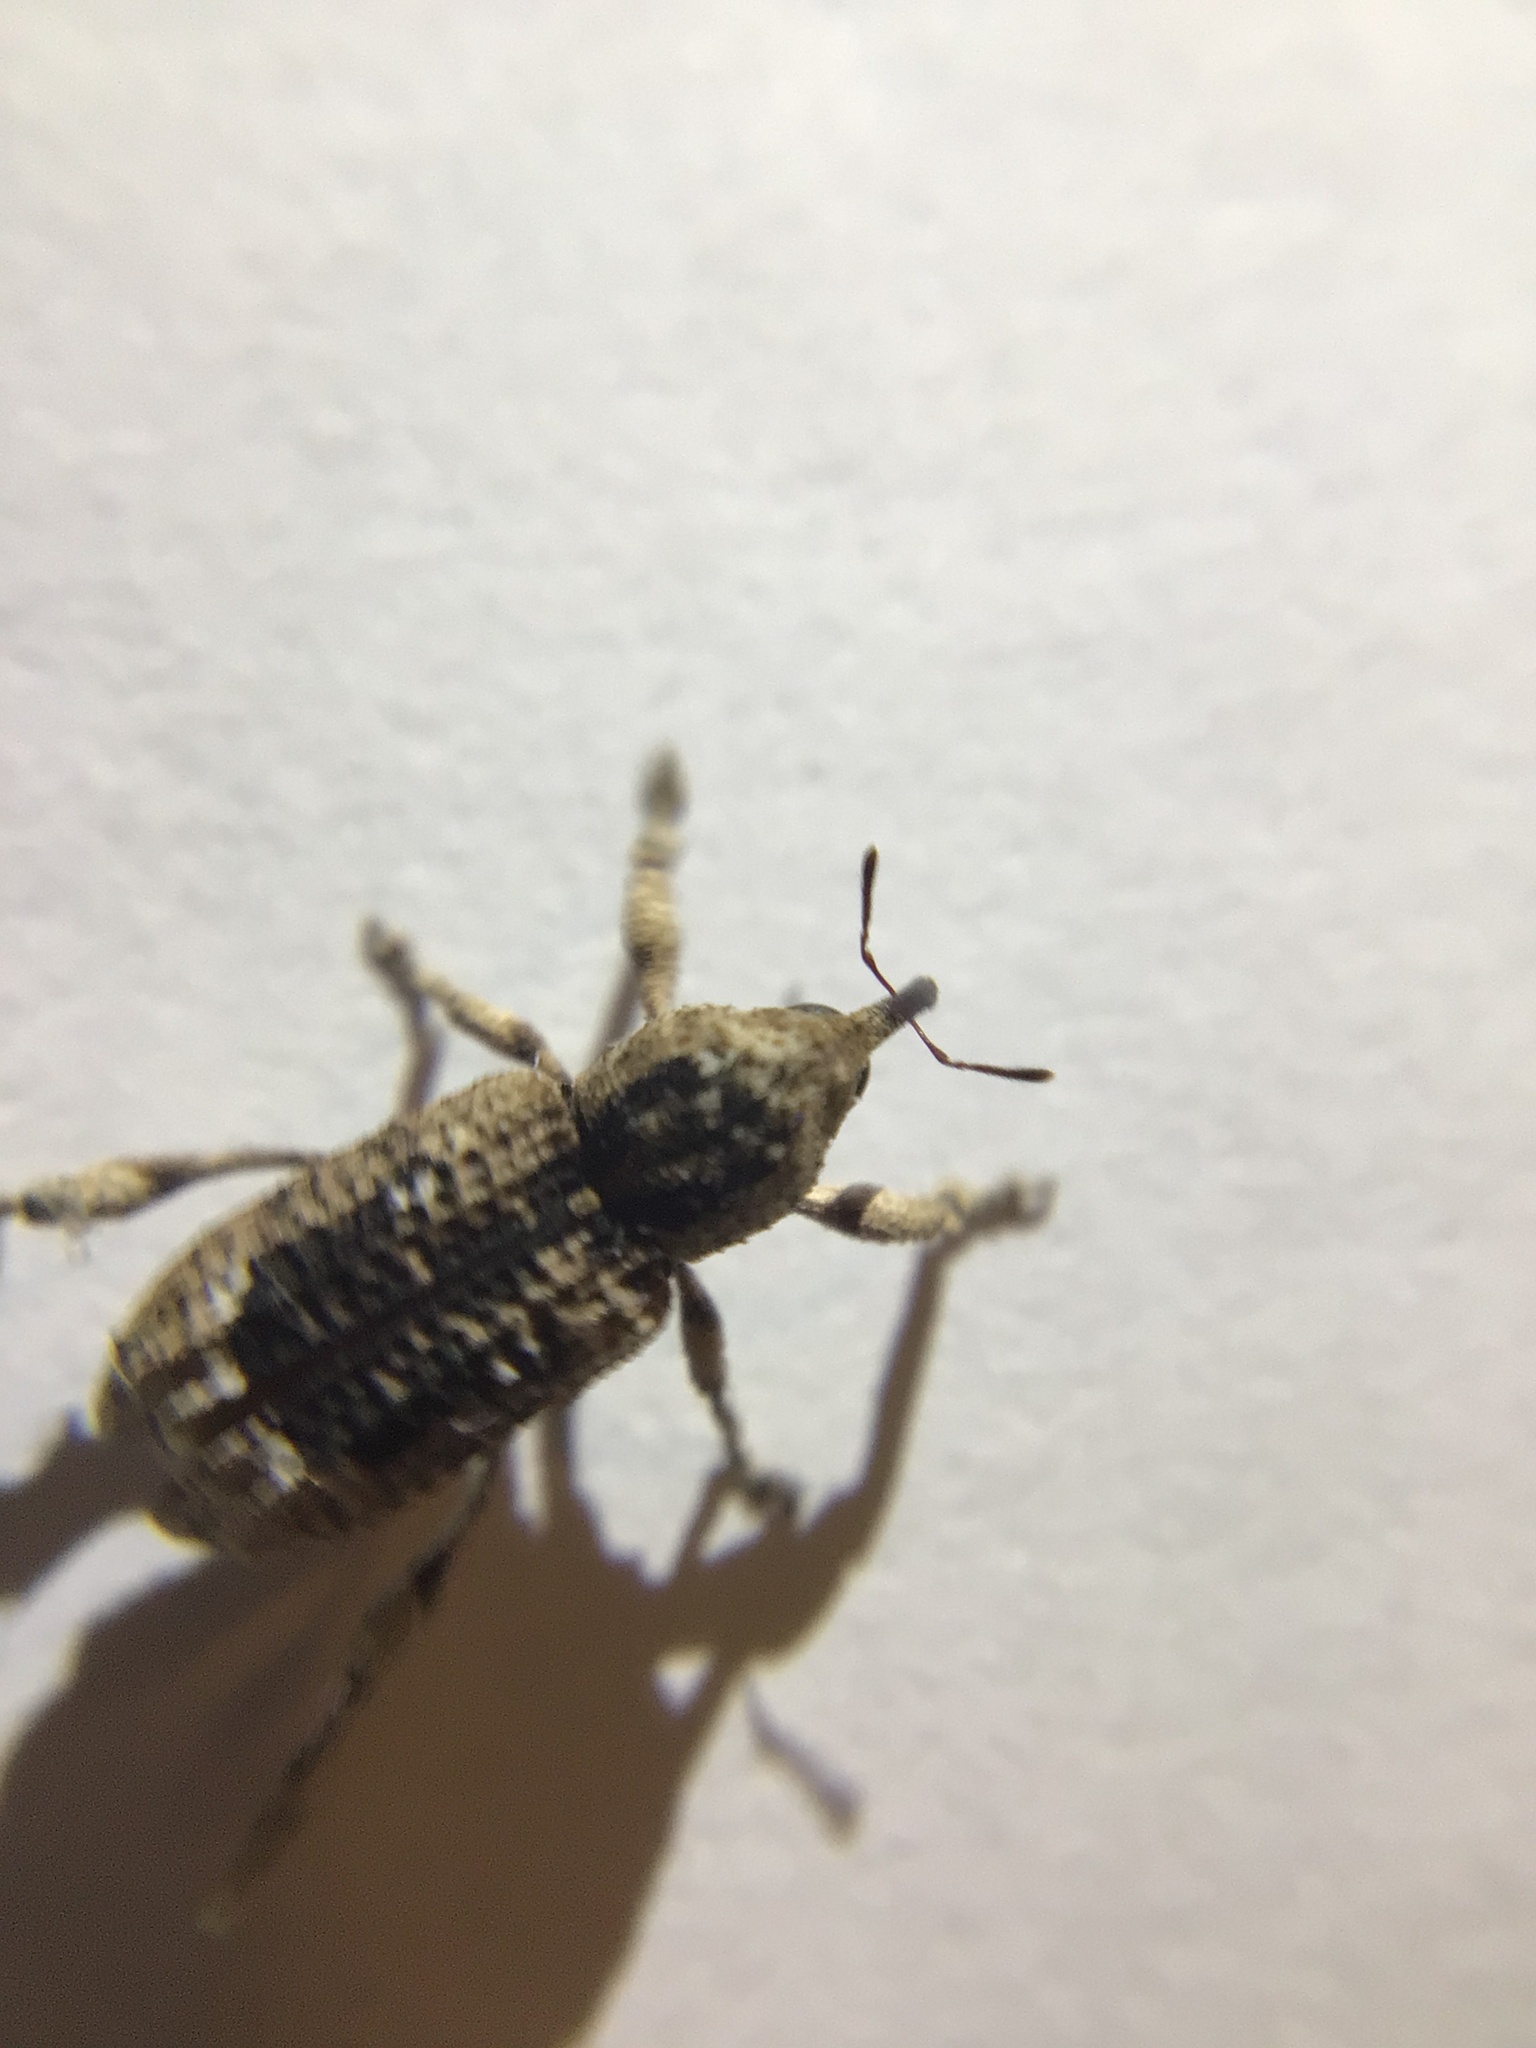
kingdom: Animalia
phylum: Arthropoda
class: Insecta
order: Coleoptera
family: Curculionidae
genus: Camptorhinus
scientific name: Camptorhinus dorsalis
